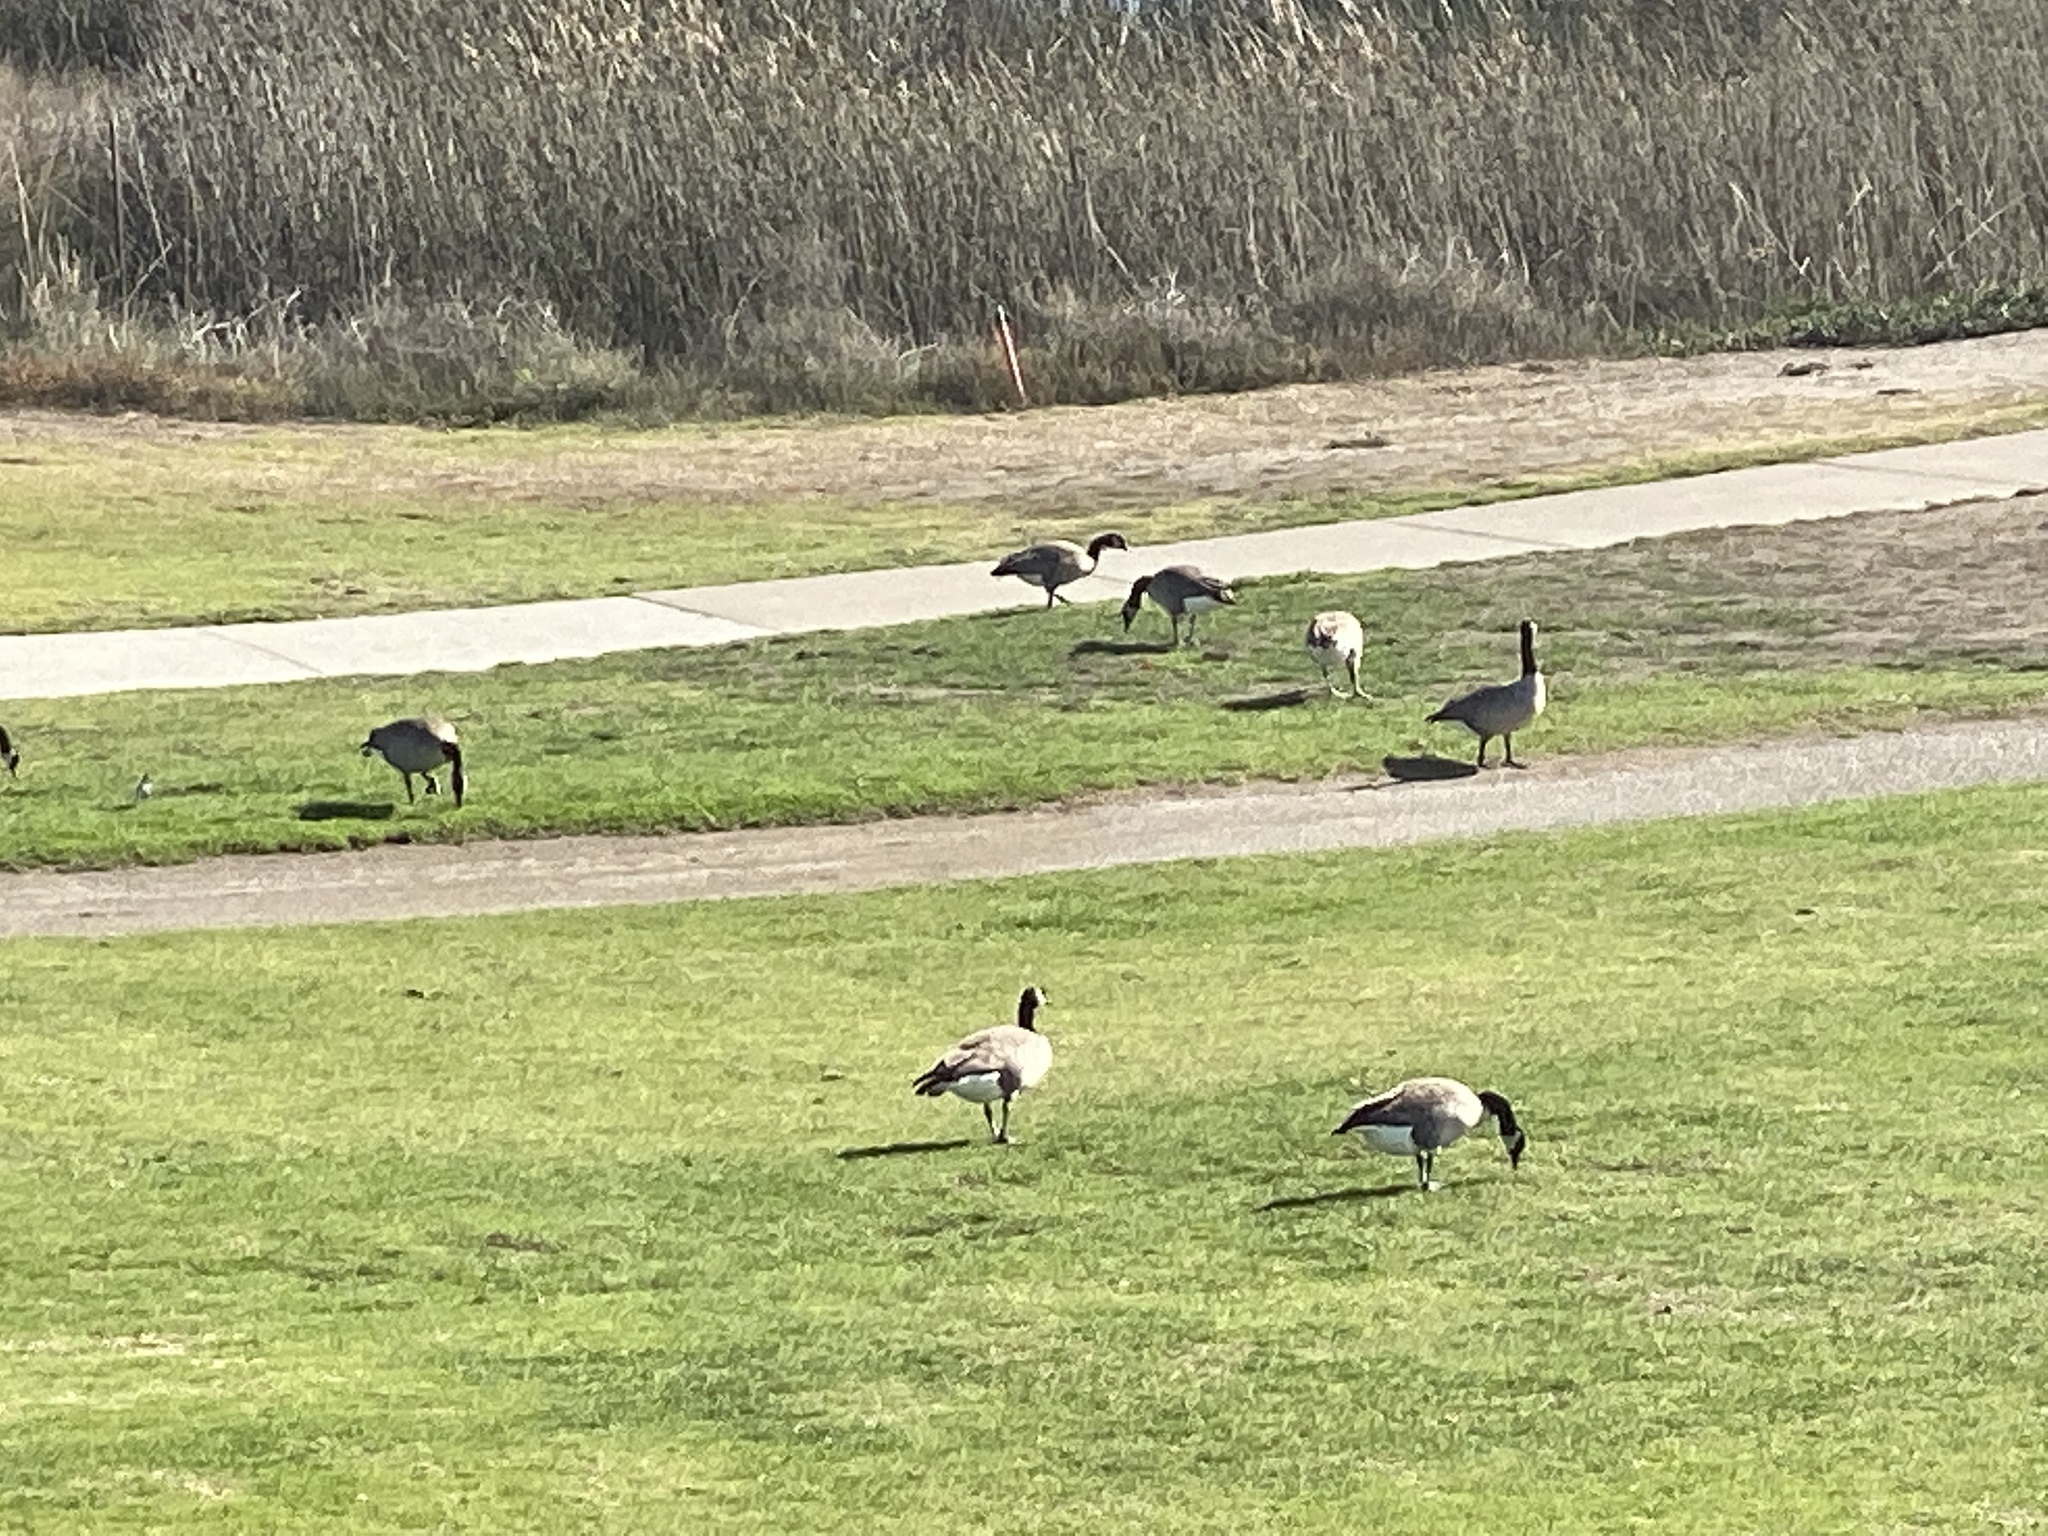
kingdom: Animalia
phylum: Chordata
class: Aves
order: Anseriformes
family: Anatidae
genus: Branta
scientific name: Branta canadensis
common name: Canada goose
